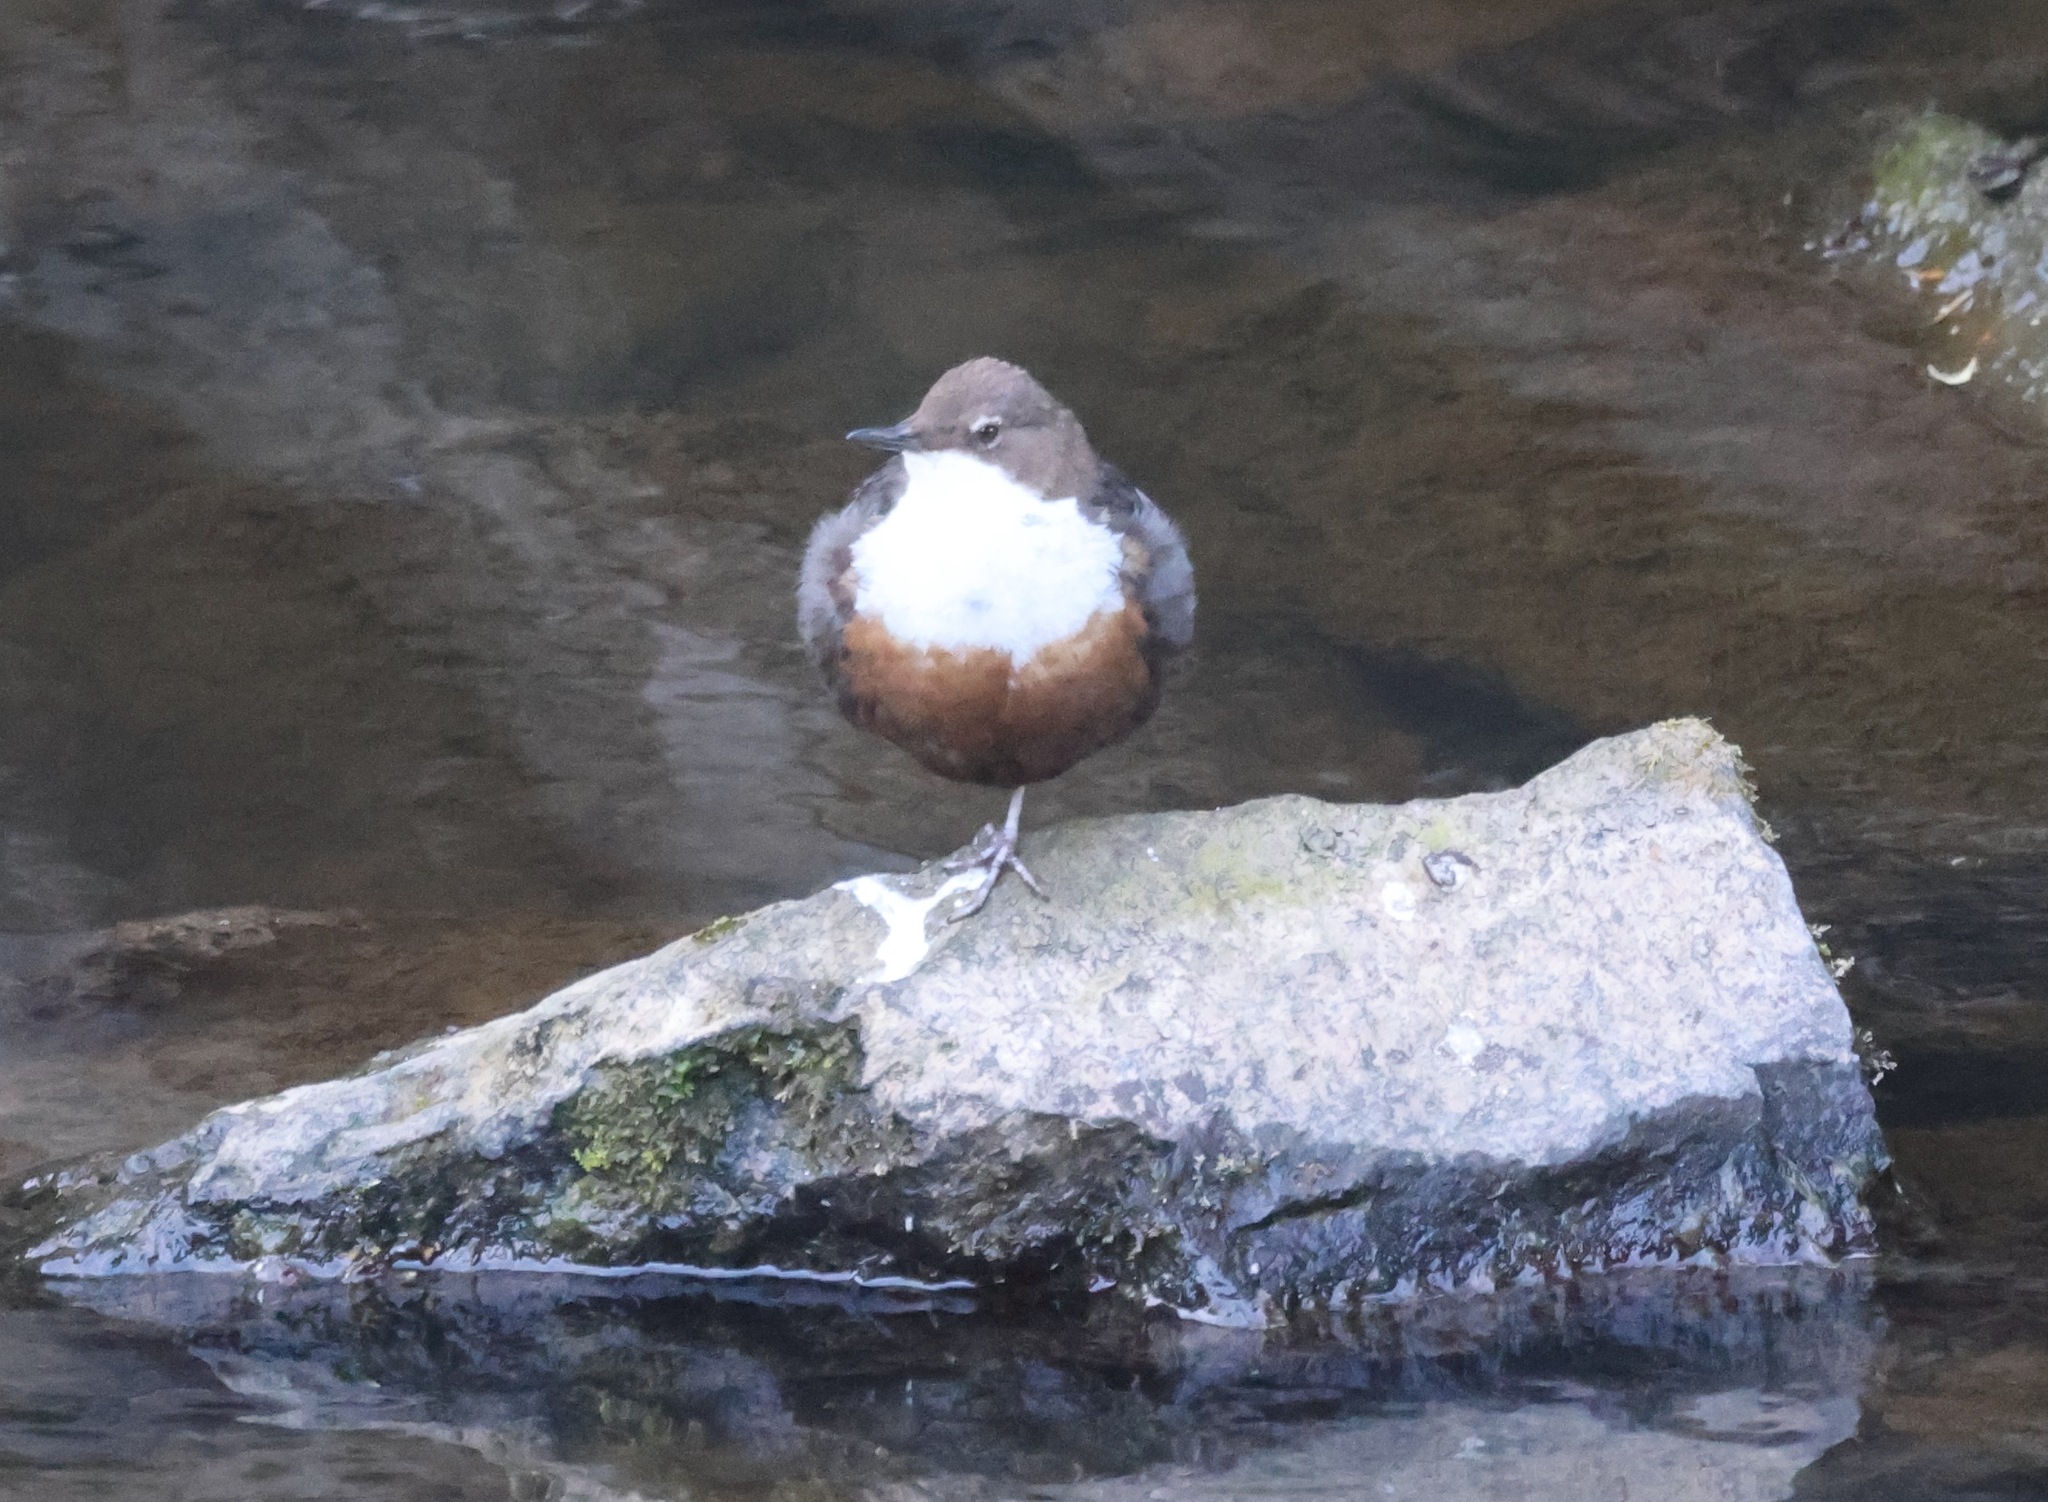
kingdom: Animalia
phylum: Chordata
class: Aves
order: Passeriformes
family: Cinclidae
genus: Cinclus
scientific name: Cinclus cinclus
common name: White-throated dipper
